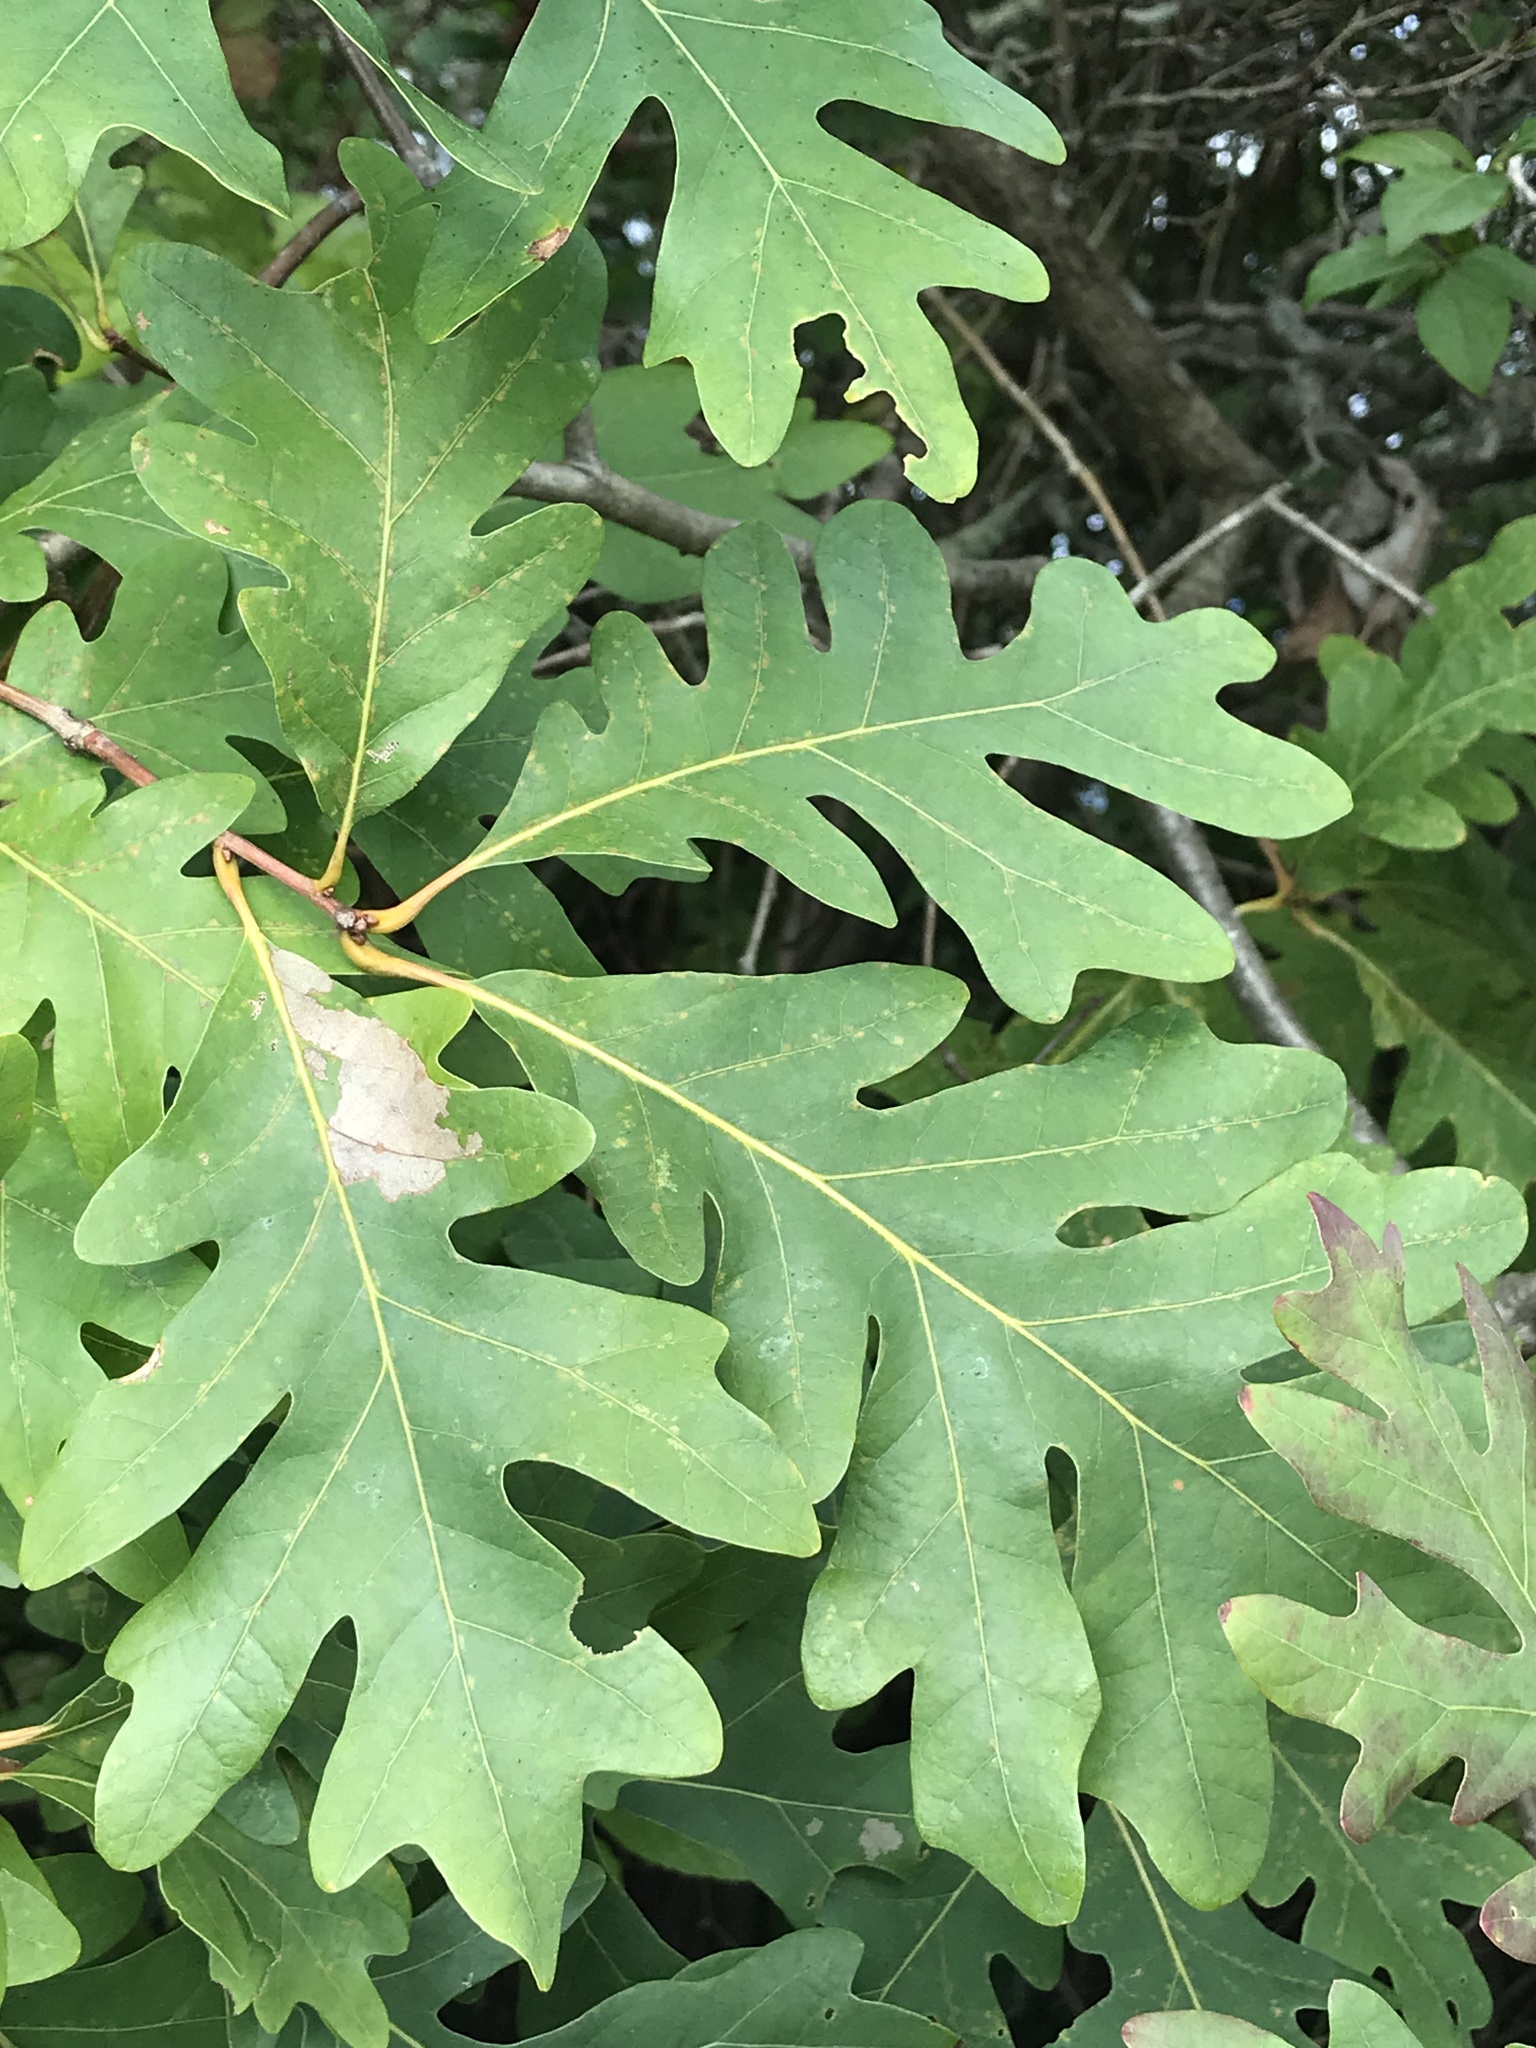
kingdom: Plantae
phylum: Tracheophyta
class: Magnoliopsida
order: Fagales
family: Fagaceae
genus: Quercus
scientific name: Quercus alba
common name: White oak
